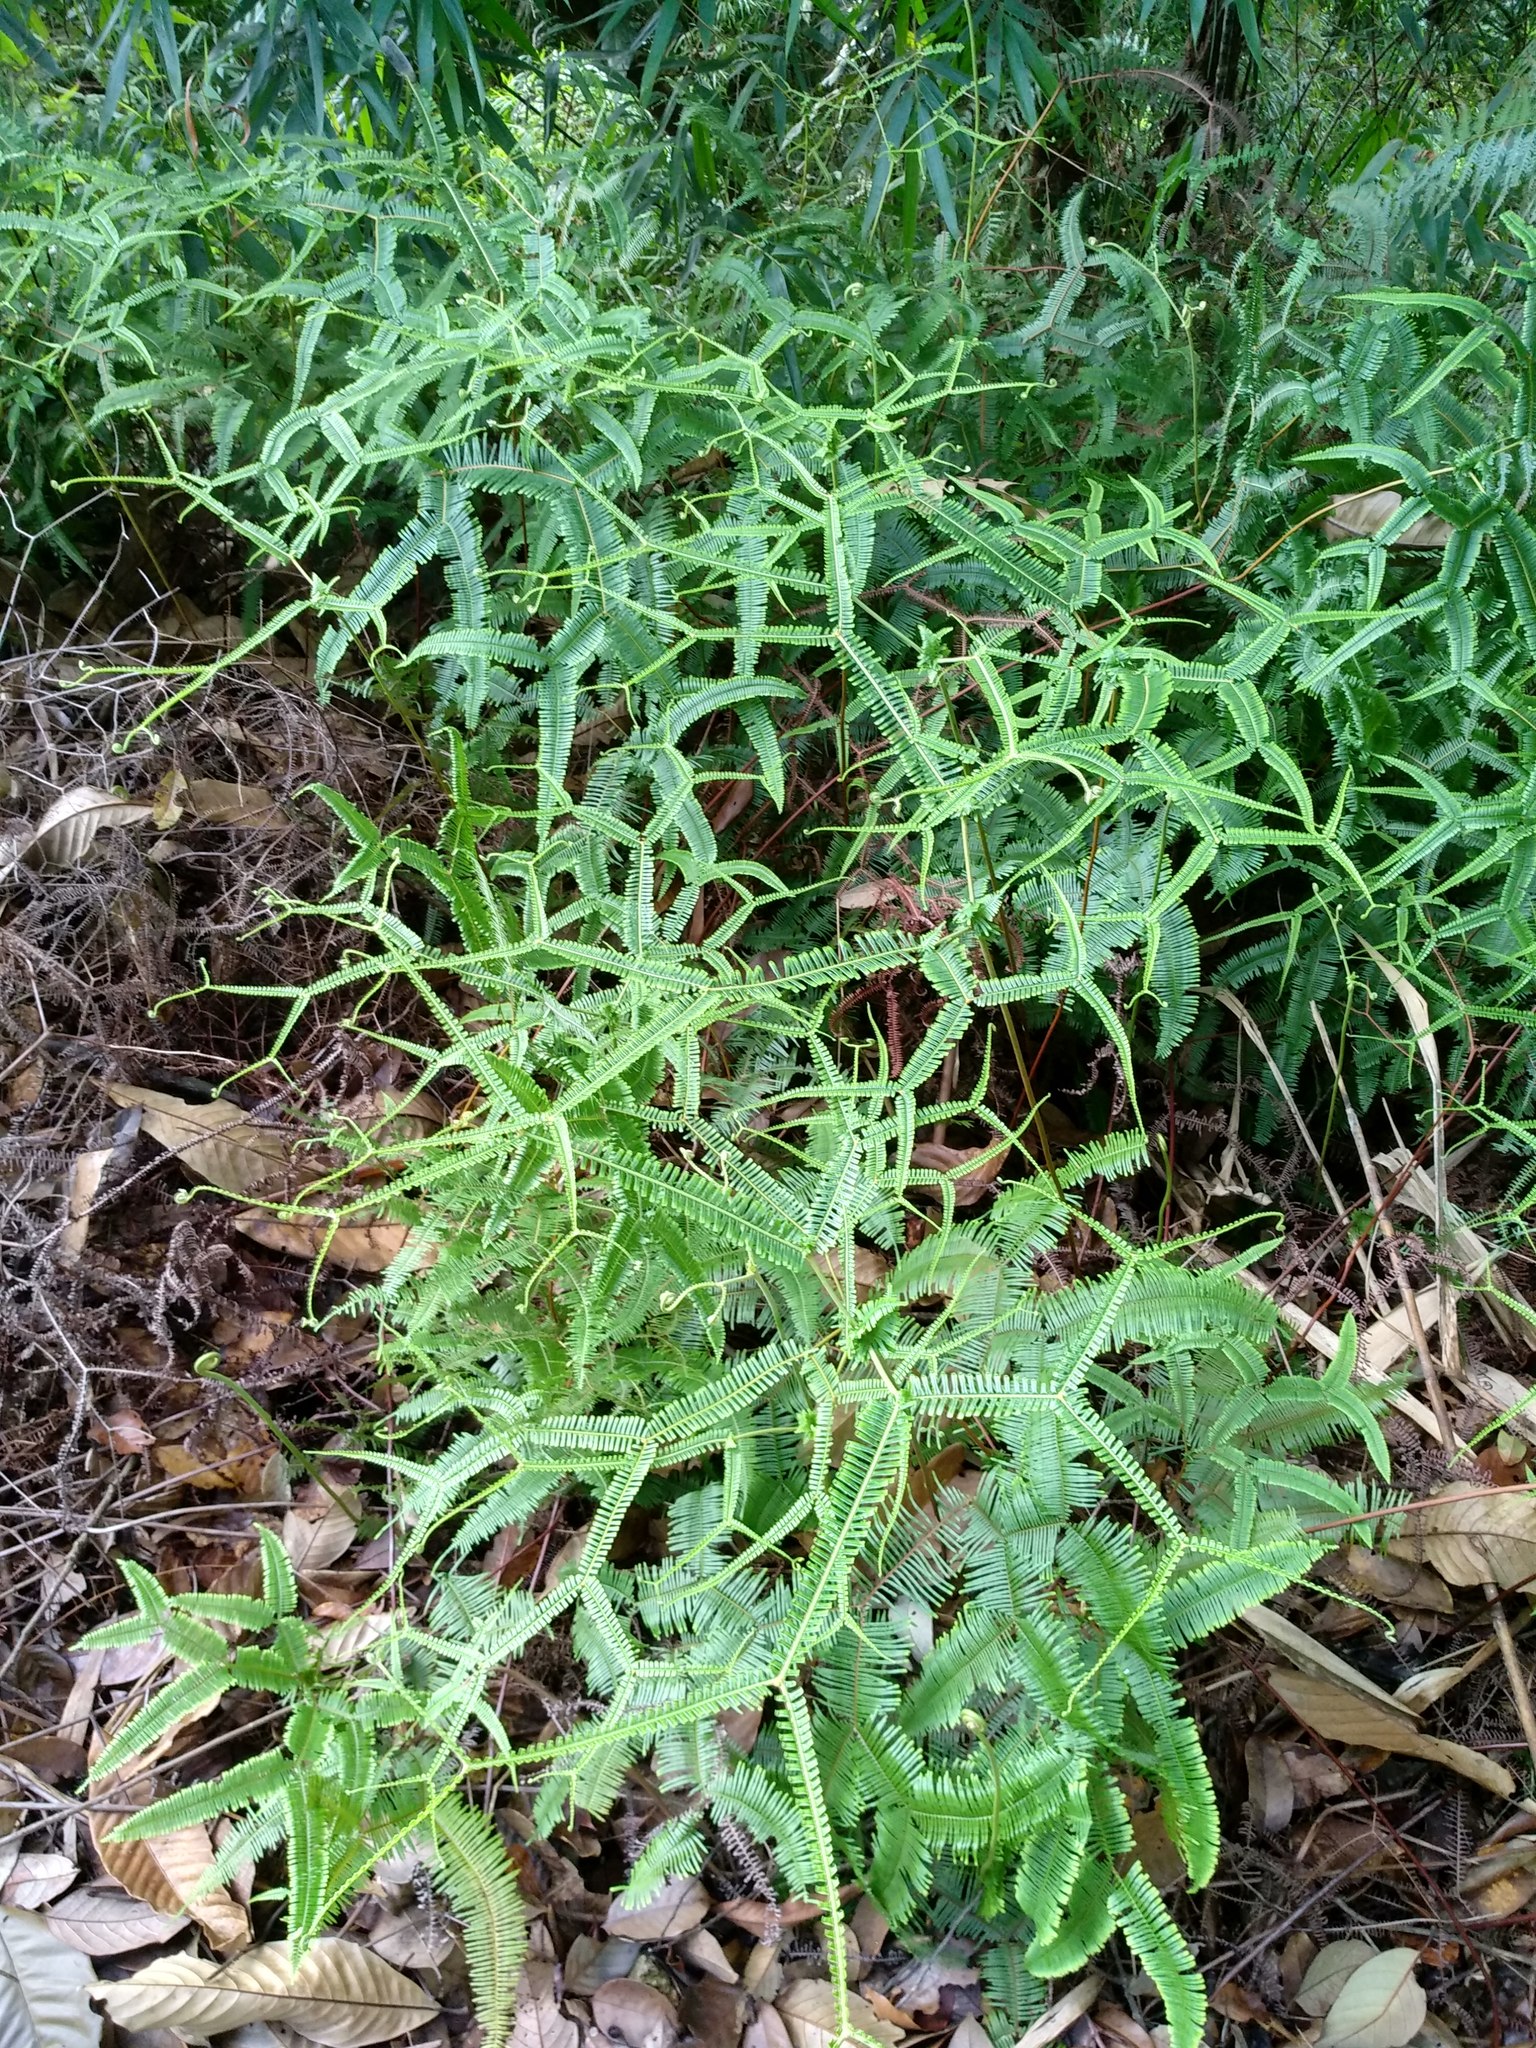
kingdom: Plantae
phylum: Tracheophyta
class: Polypodiopsida
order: Gleicheniales
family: Gleicheniaceae
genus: Sticherus
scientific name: Sticherus truncatus
